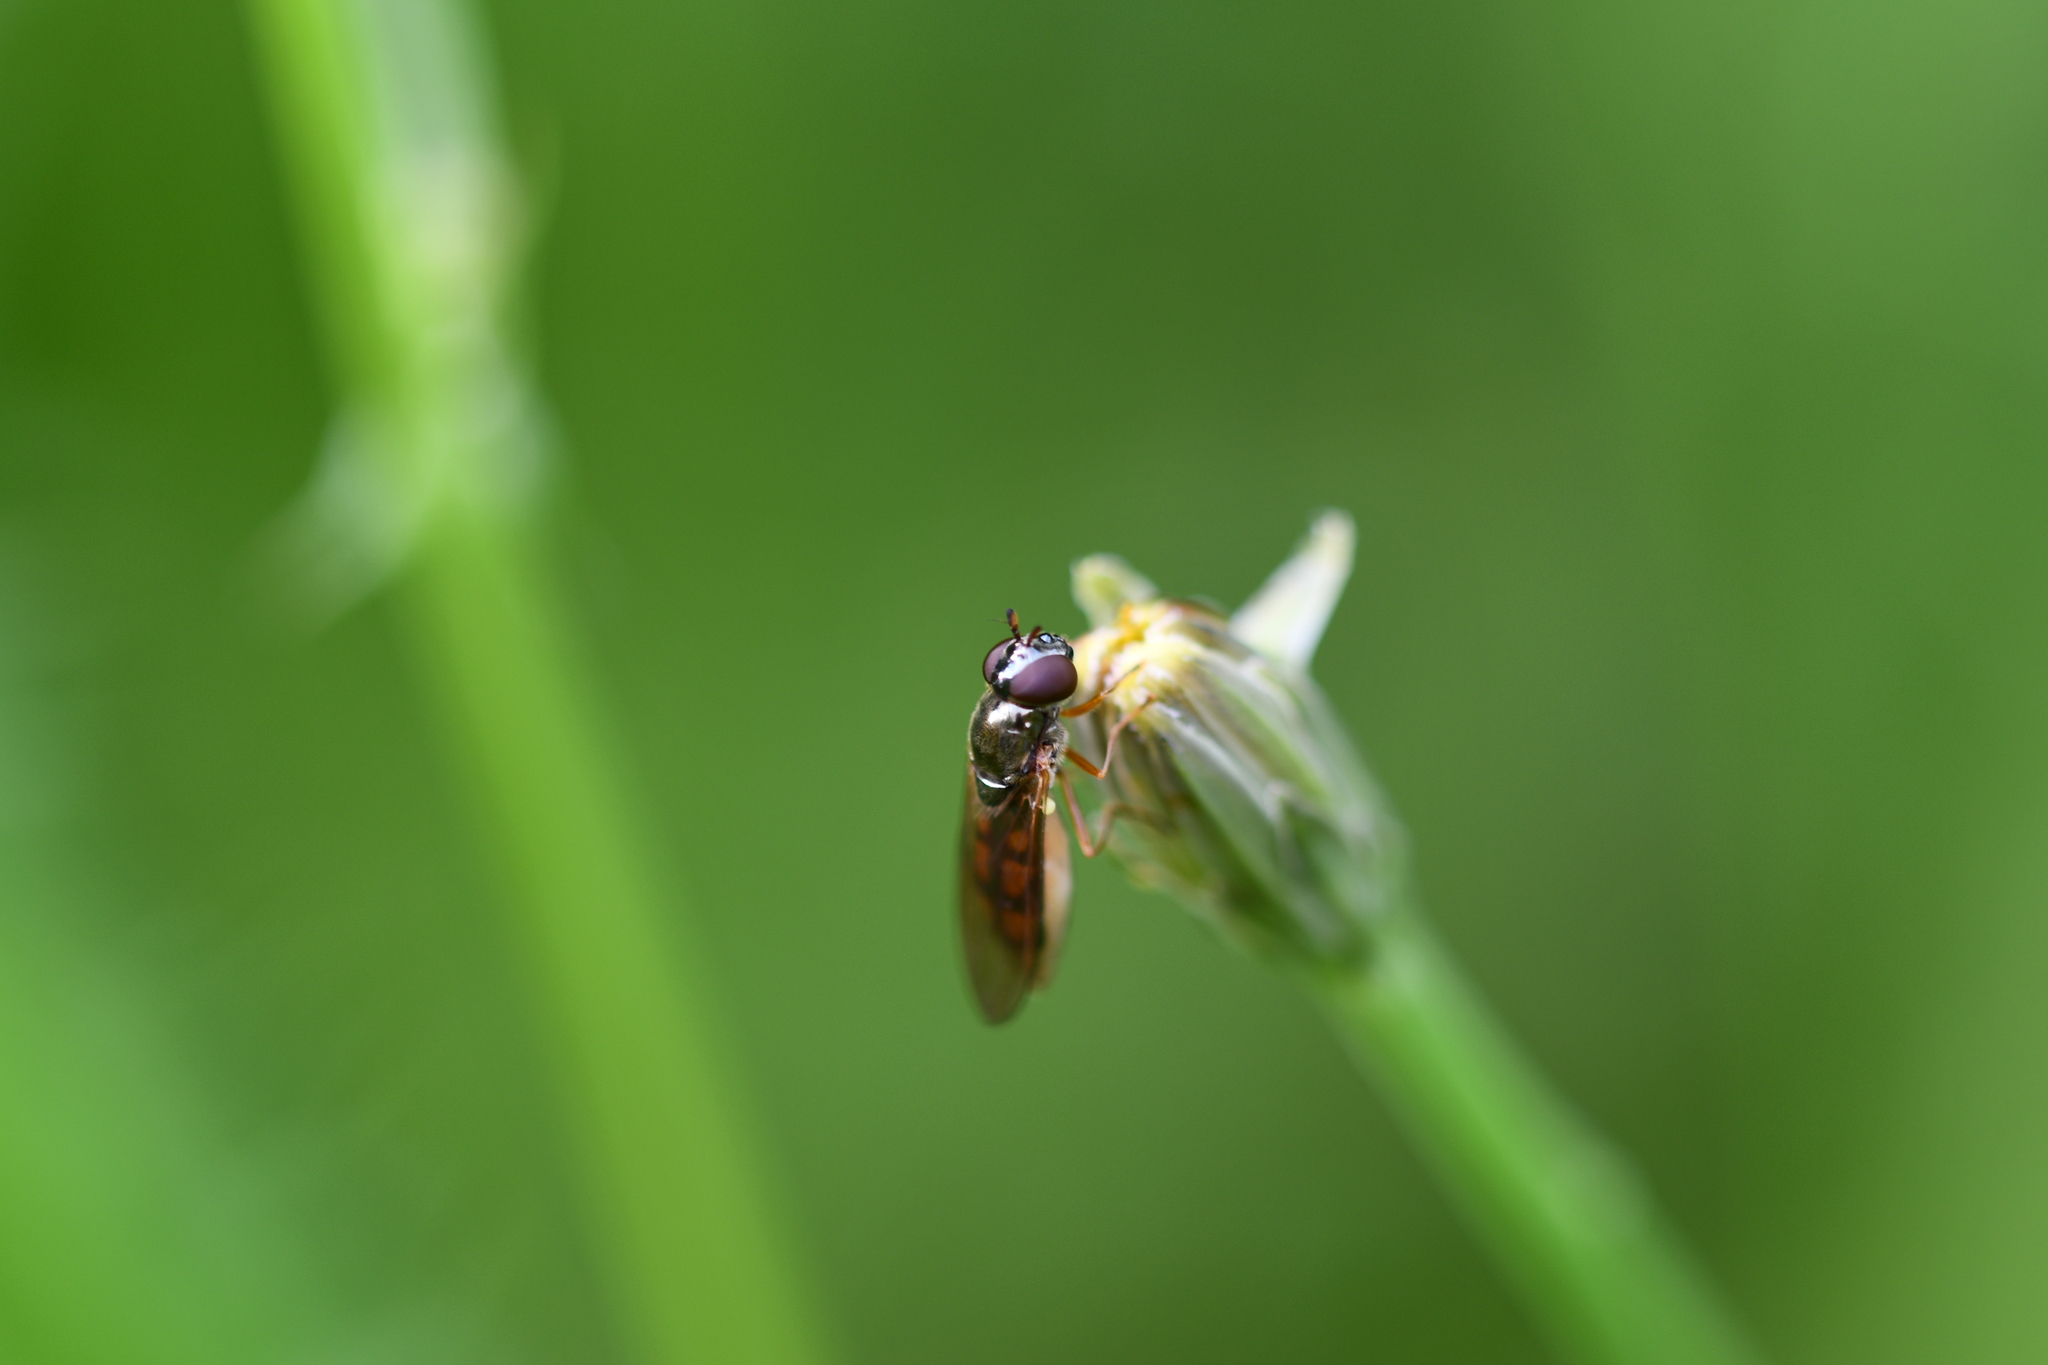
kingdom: Animalia
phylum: Arthropoda
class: Insecta
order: Diptera
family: Syrphidae
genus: Melanostoma
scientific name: Melanostoma mellina
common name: Hover fly
